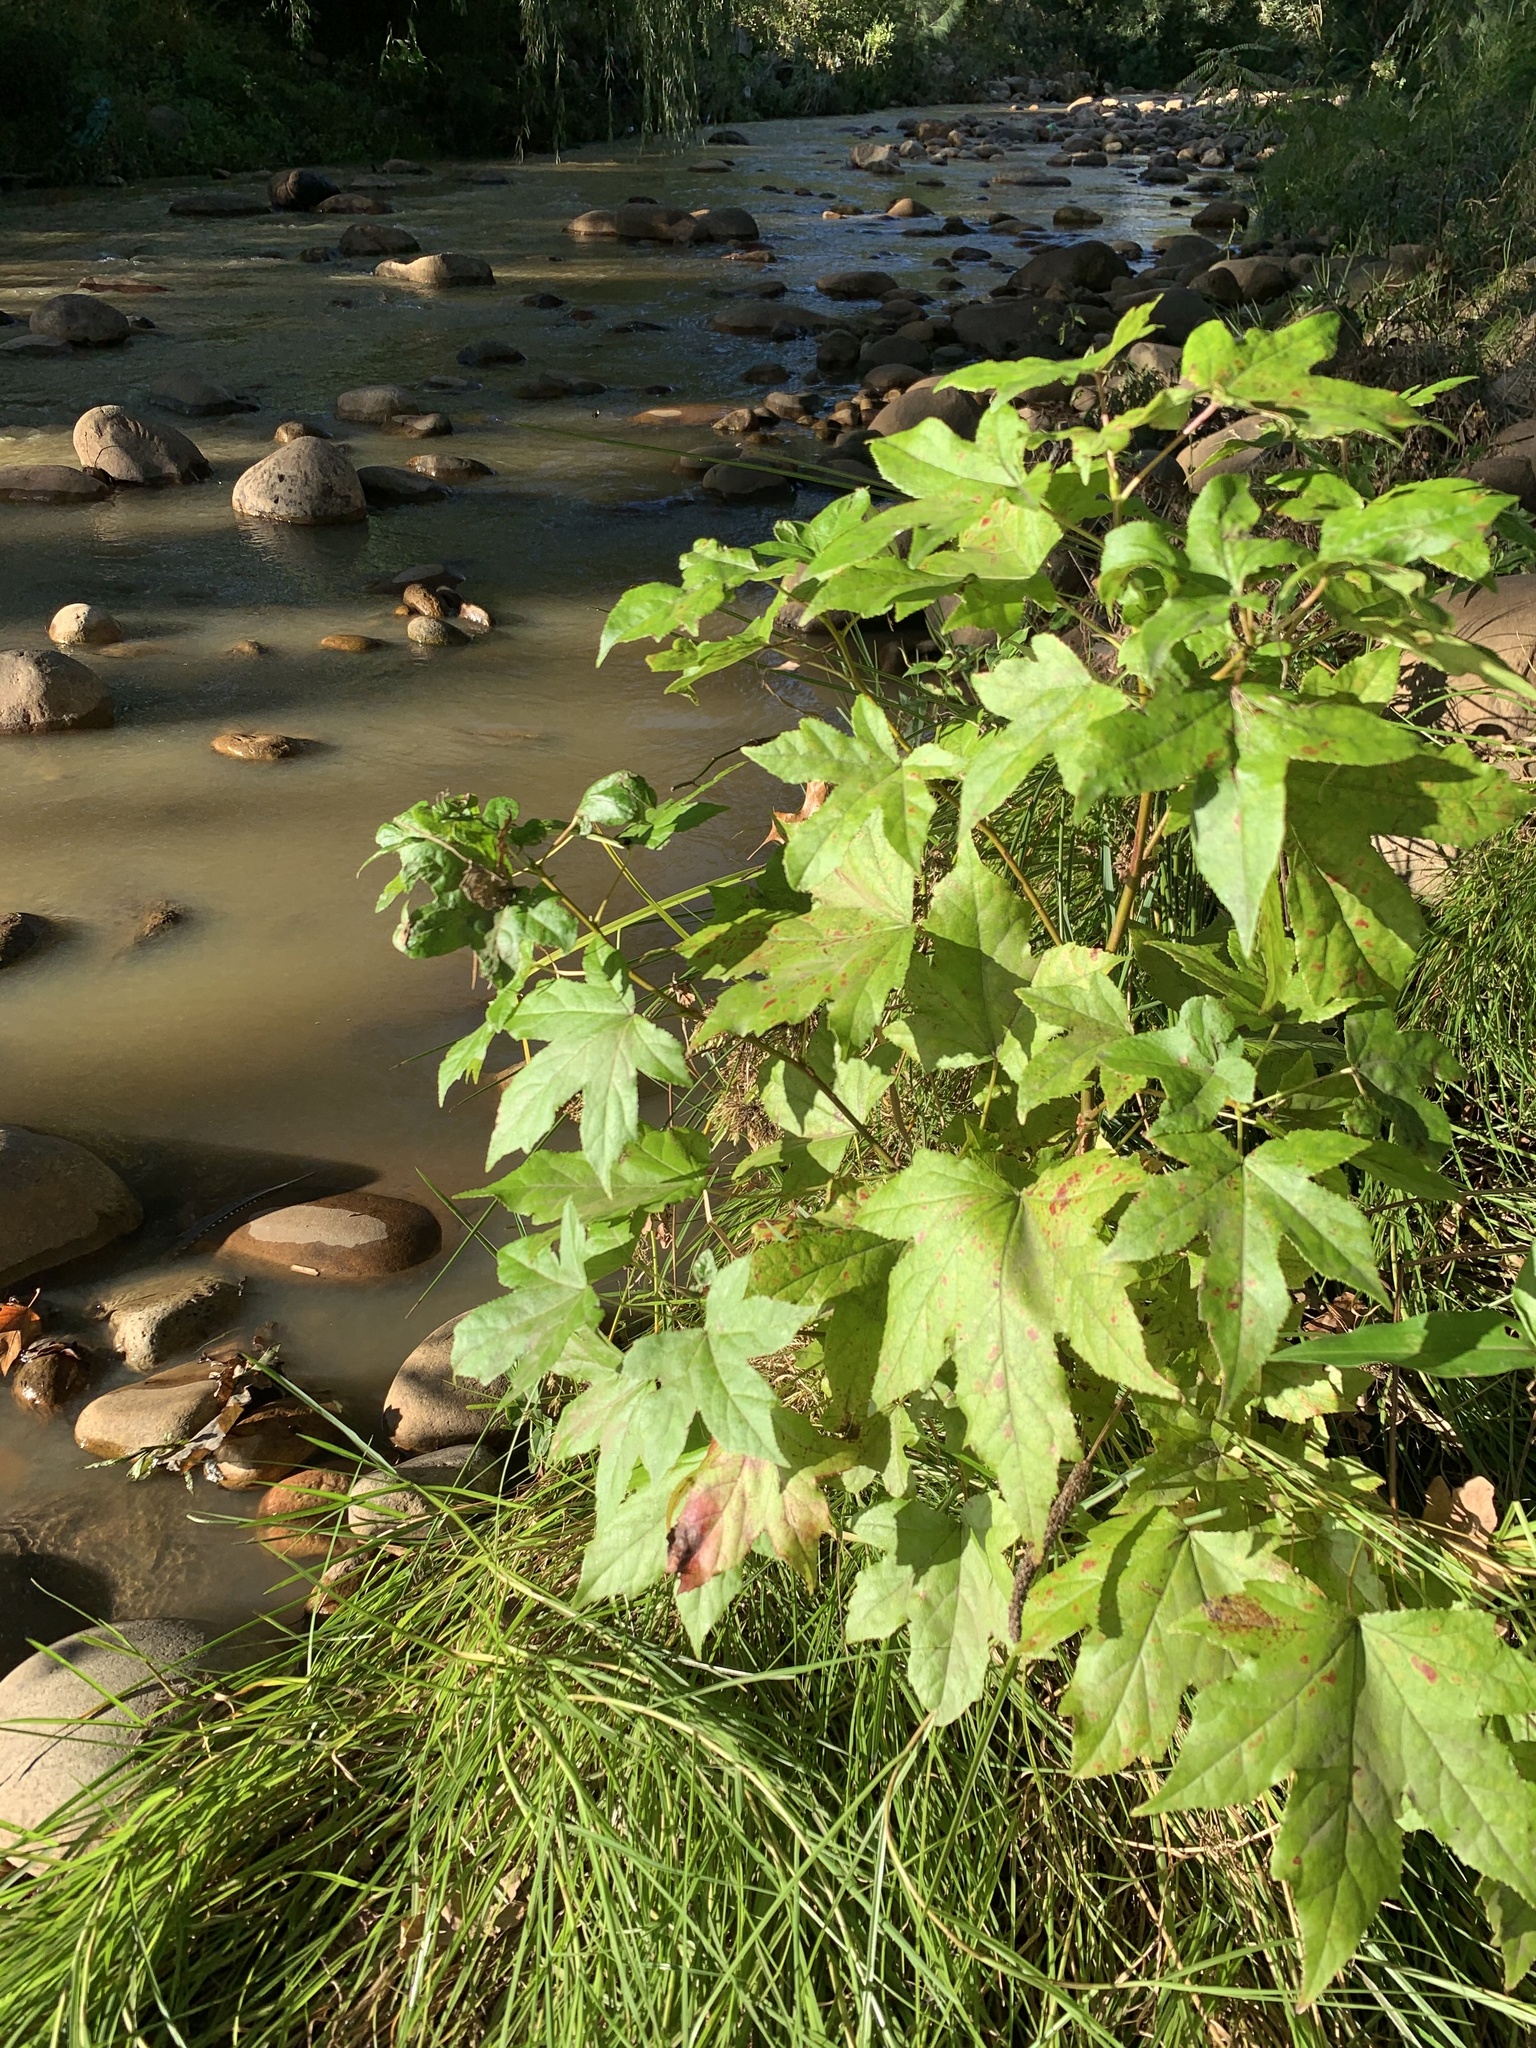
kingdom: Plantae
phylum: Tracheophyta
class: Magnoliopsida
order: Saxifragales
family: Altingiaceae
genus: Liquidambar
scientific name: Liquidambar styraciflua
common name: Sweet gum
